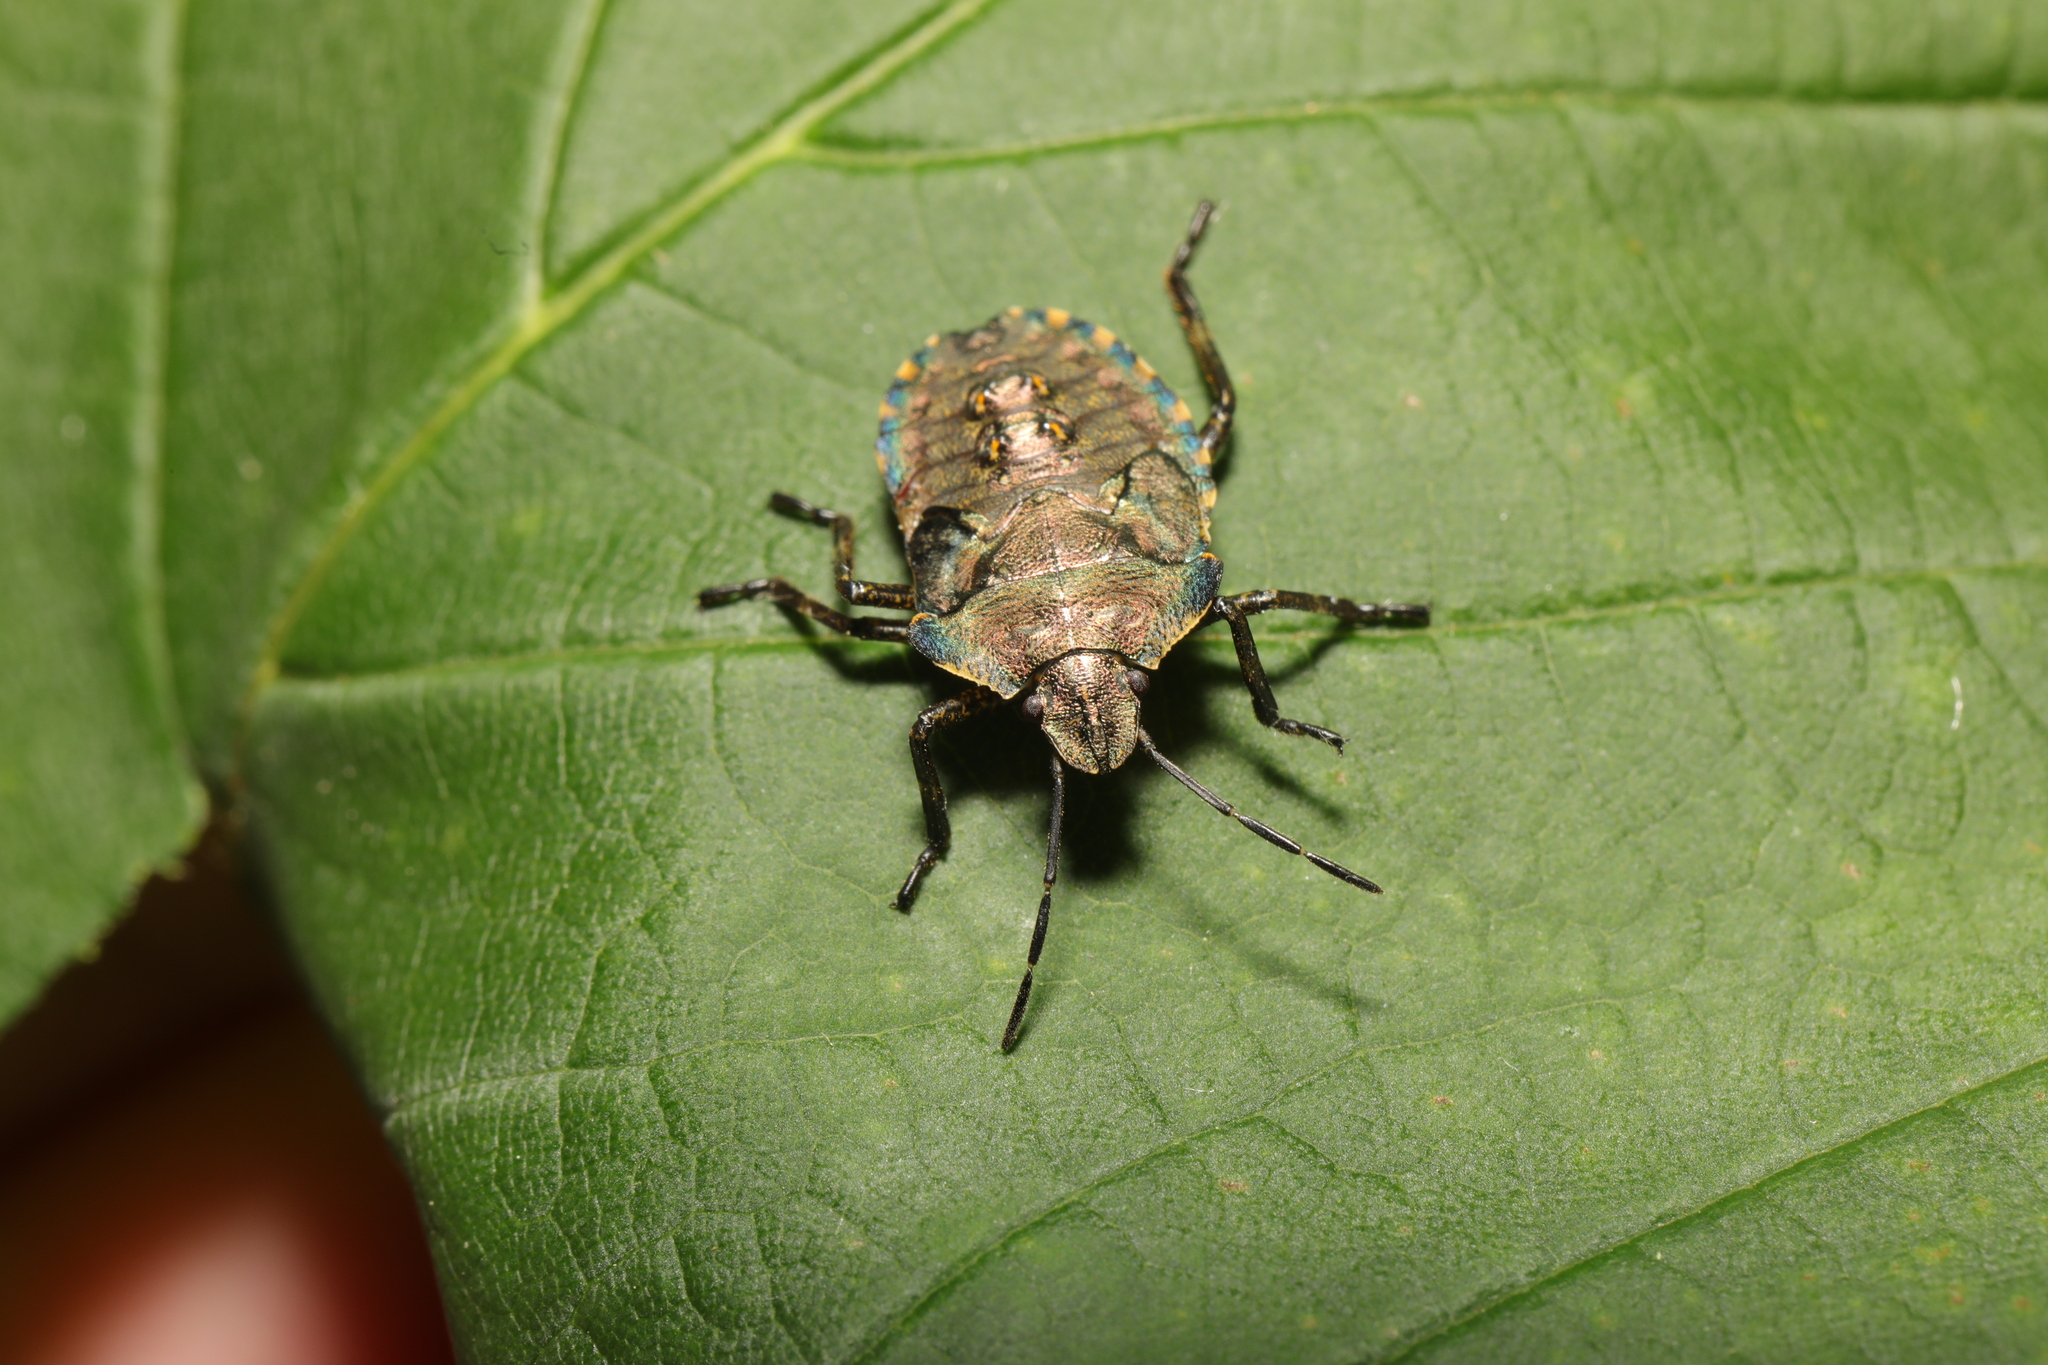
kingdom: Animalia
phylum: Arthropoda
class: Insecta
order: Hemiptera
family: Pentatomidae
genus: Pentatoma
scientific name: Pentatoma rufipes
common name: Forest bug
